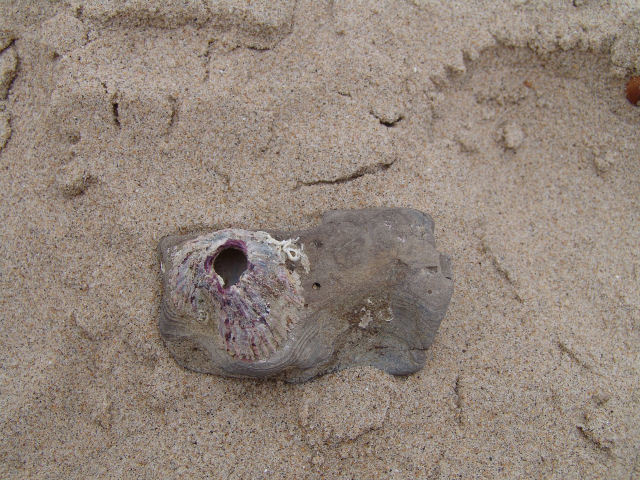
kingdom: Animalia
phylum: Arthropoda
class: Maxillopoda
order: Sessilia
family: Balanidae
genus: Menesiniella
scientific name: Menesiniella regalis
